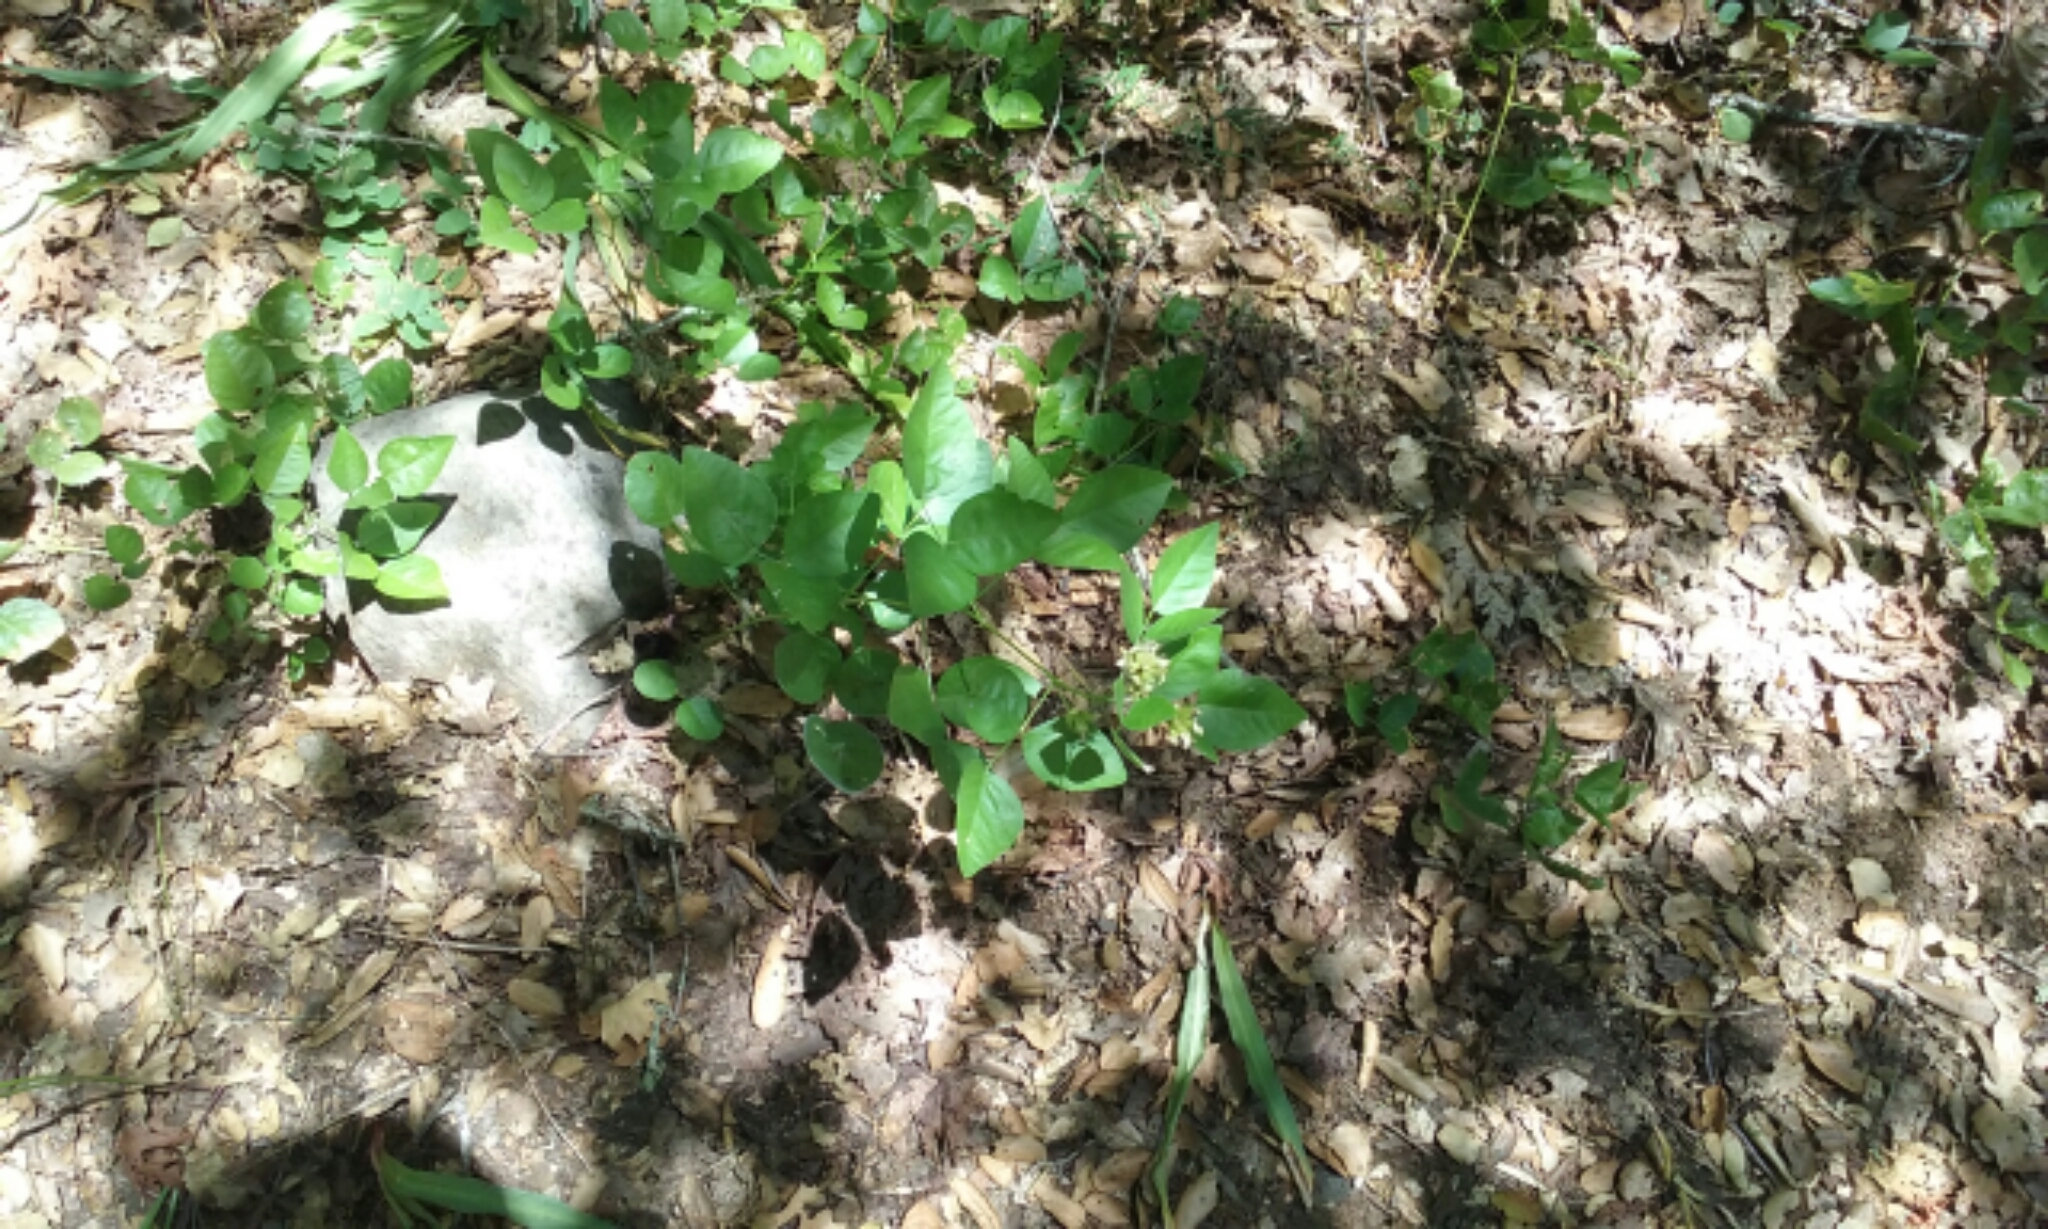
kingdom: Plantae
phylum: Tracheophyta
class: Magnoliopsida
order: Fabales
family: Fabaceae
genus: Rupertia
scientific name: Rupertia physodes
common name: California-tea
